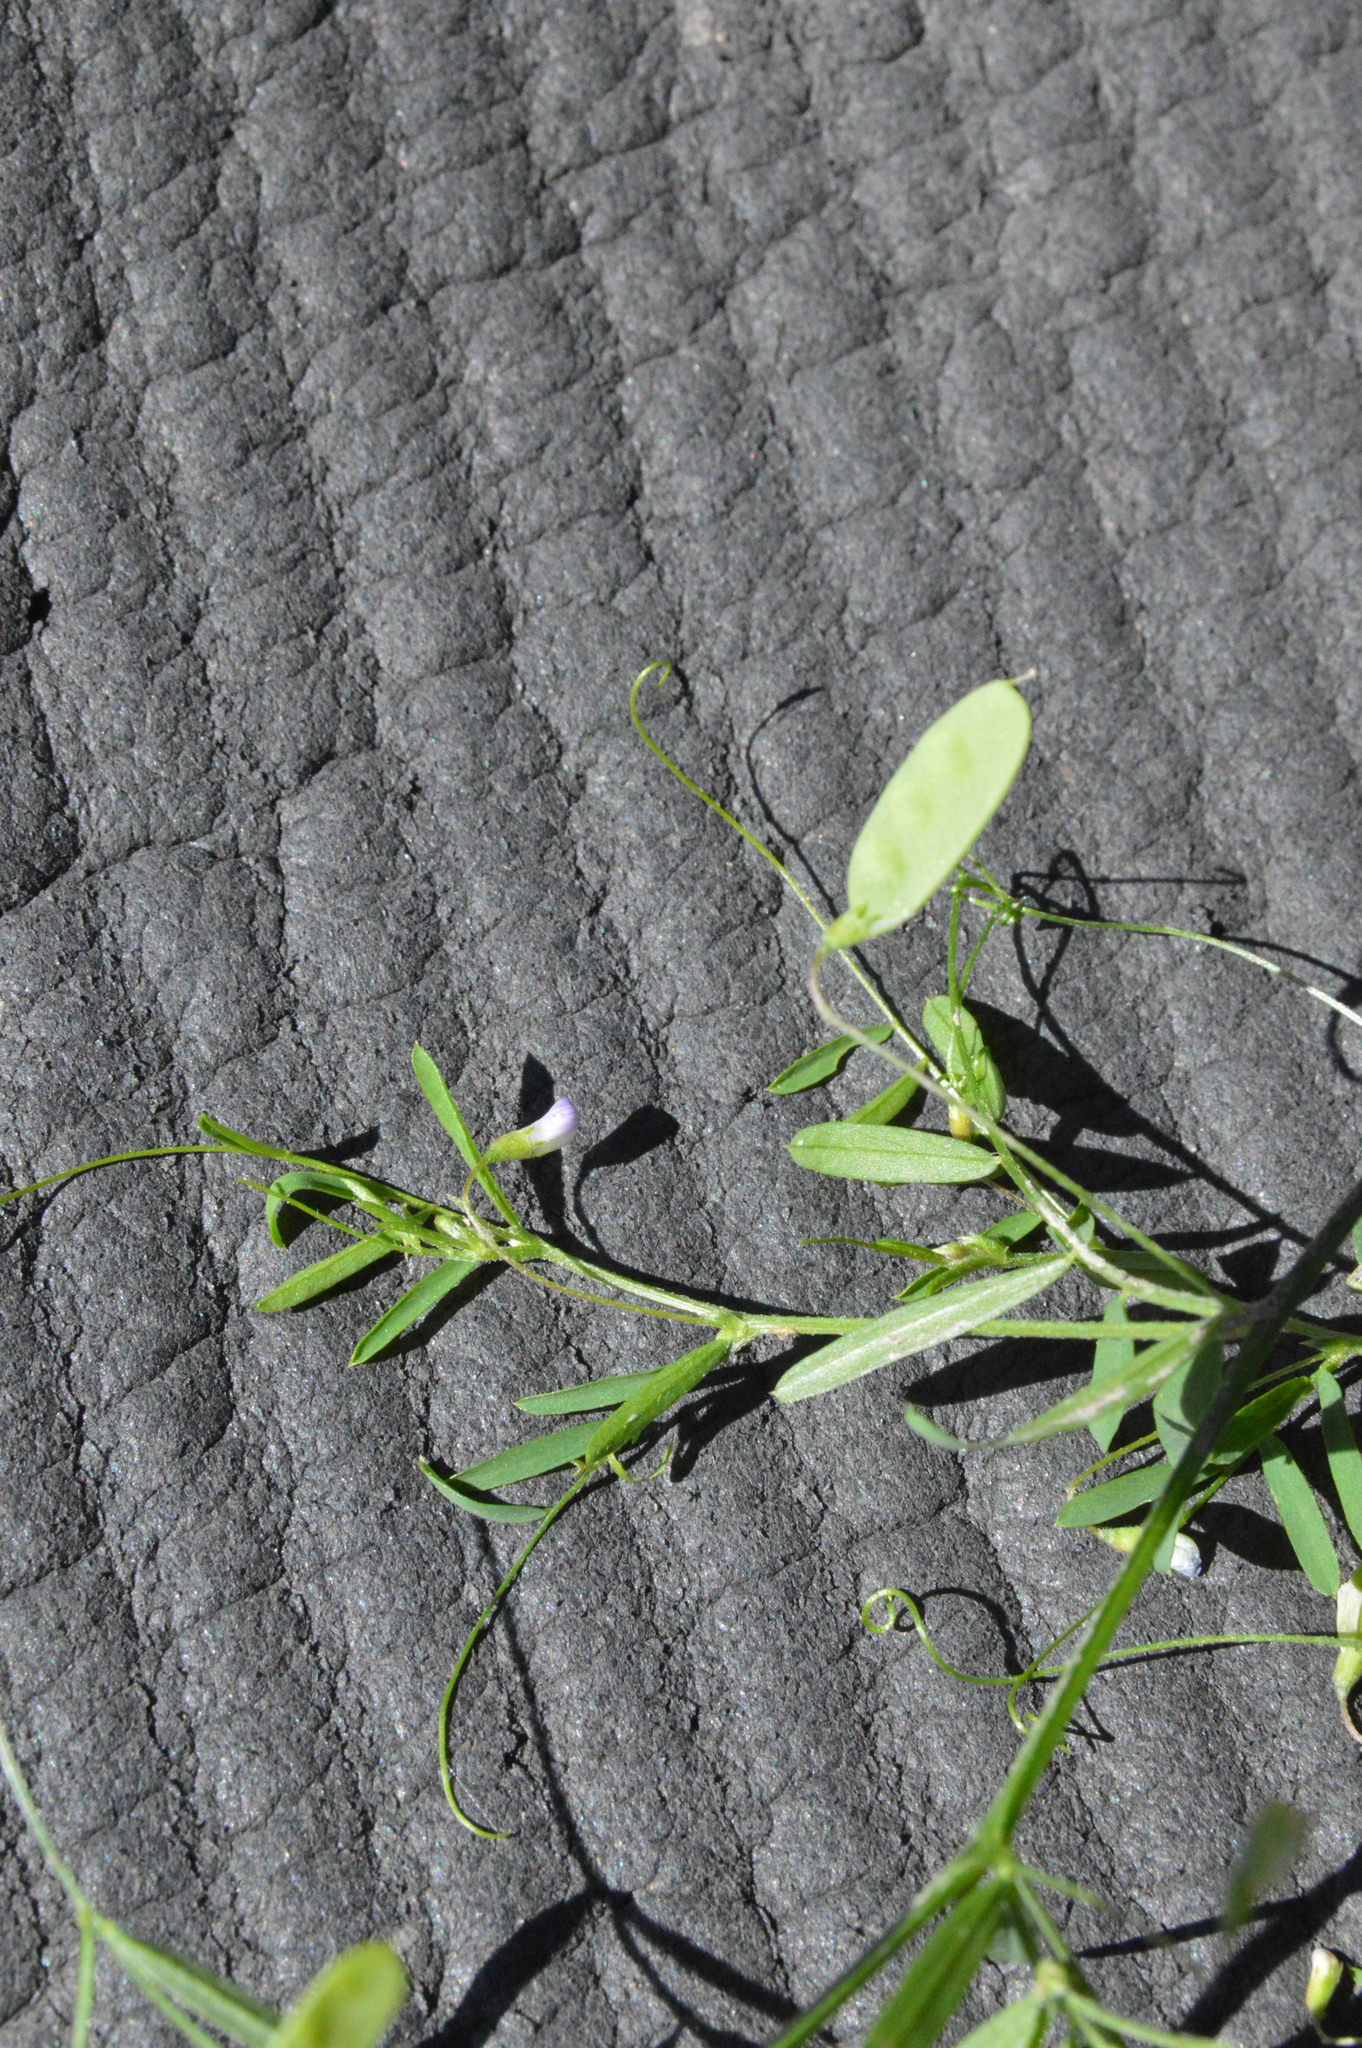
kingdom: Plantae
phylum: Tracheophyta
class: Magnoliopsida
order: Fabales
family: Fabaceae
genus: Vicia
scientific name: Vicia tetrasperma
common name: Smooth tare
